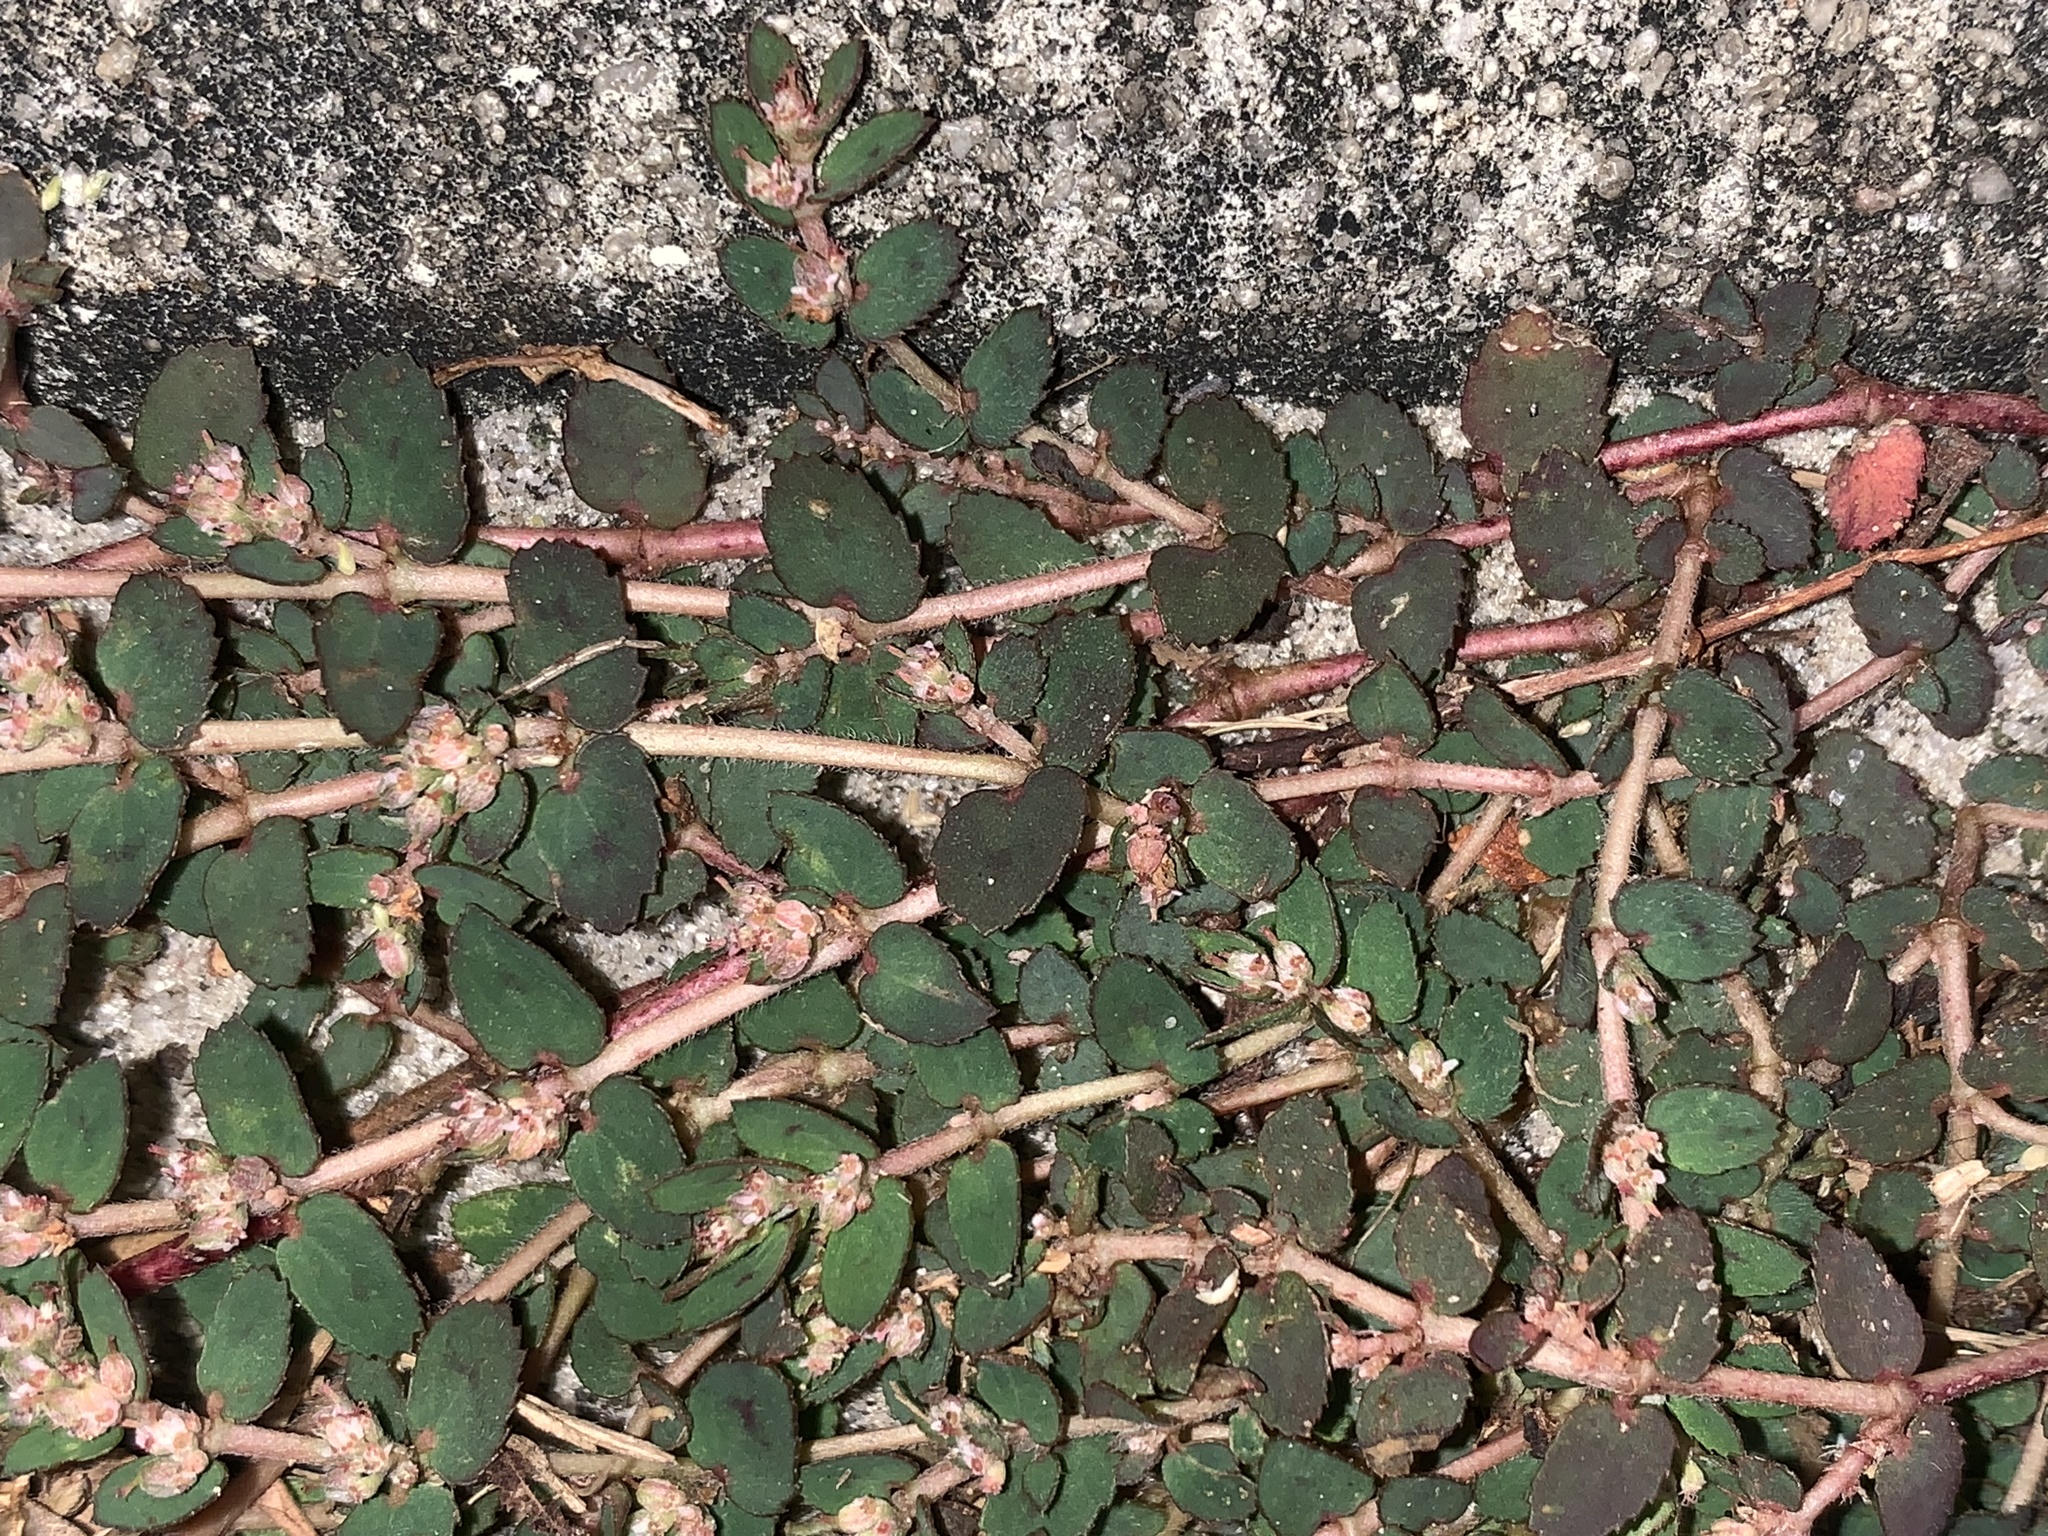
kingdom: Plantae
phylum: Tracheophyta
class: Magnoliopsida
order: Malpighiales
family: Euphorbiaceae
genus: Euphorbia
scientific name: Euphorbia thymifolia
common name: Gulf sandmat
